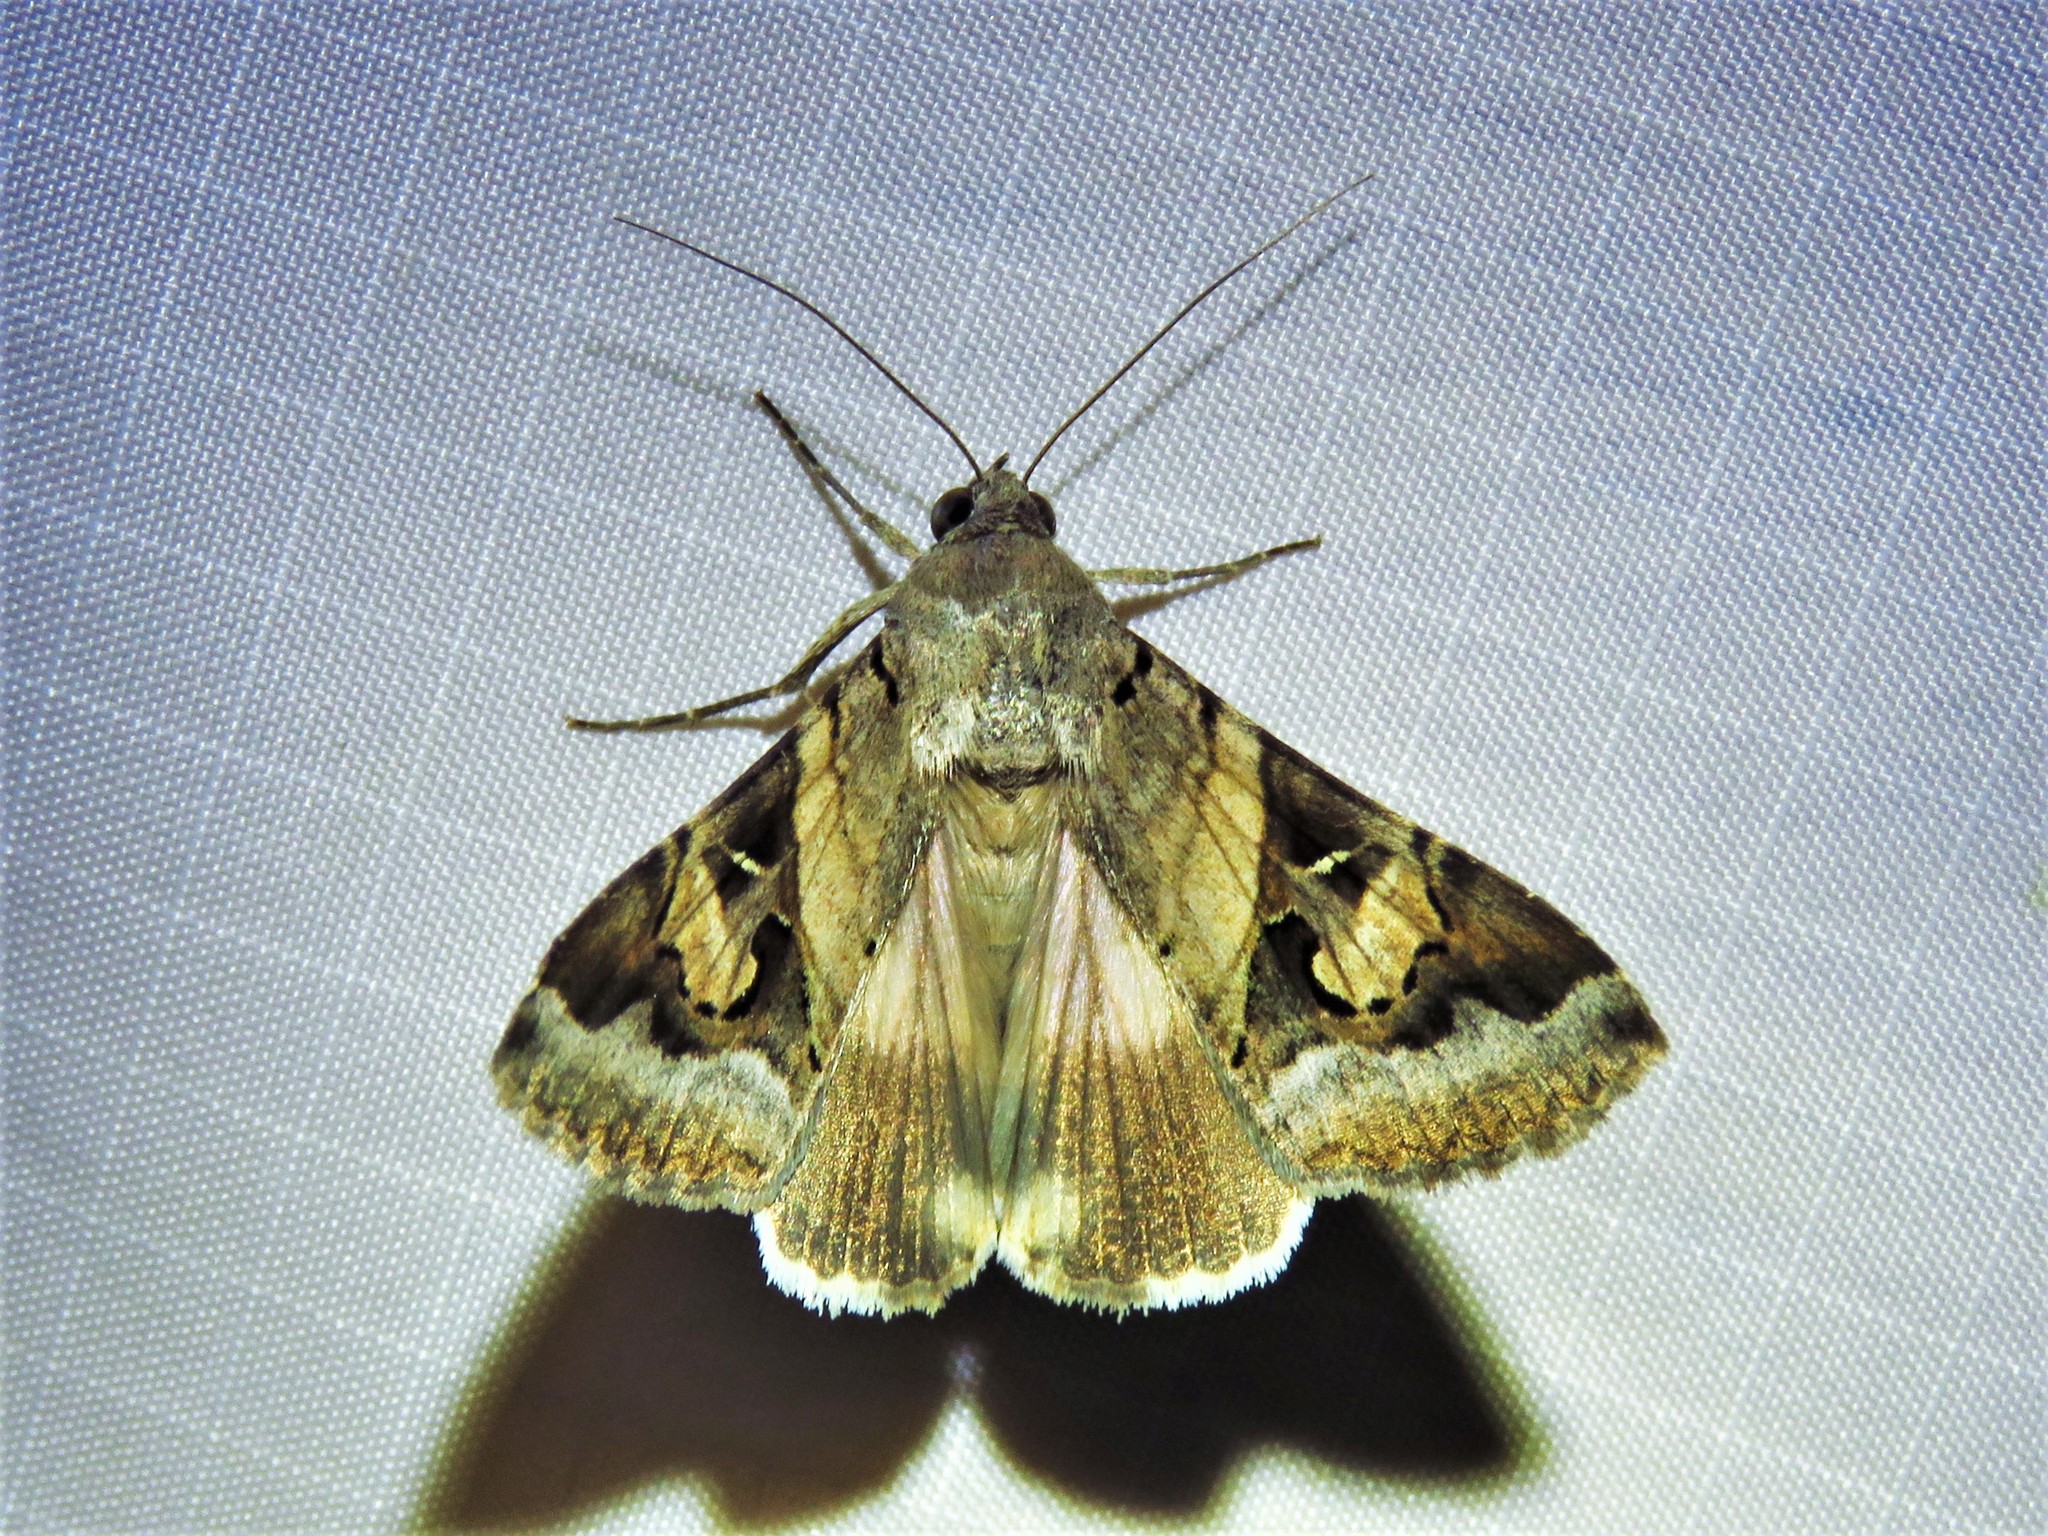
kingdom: Animalia
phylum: Arthropoda
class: Insecta
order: Lepidoptera
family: Erebidae
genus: Melipotis
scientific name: Melipotis indomita
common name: Moth
